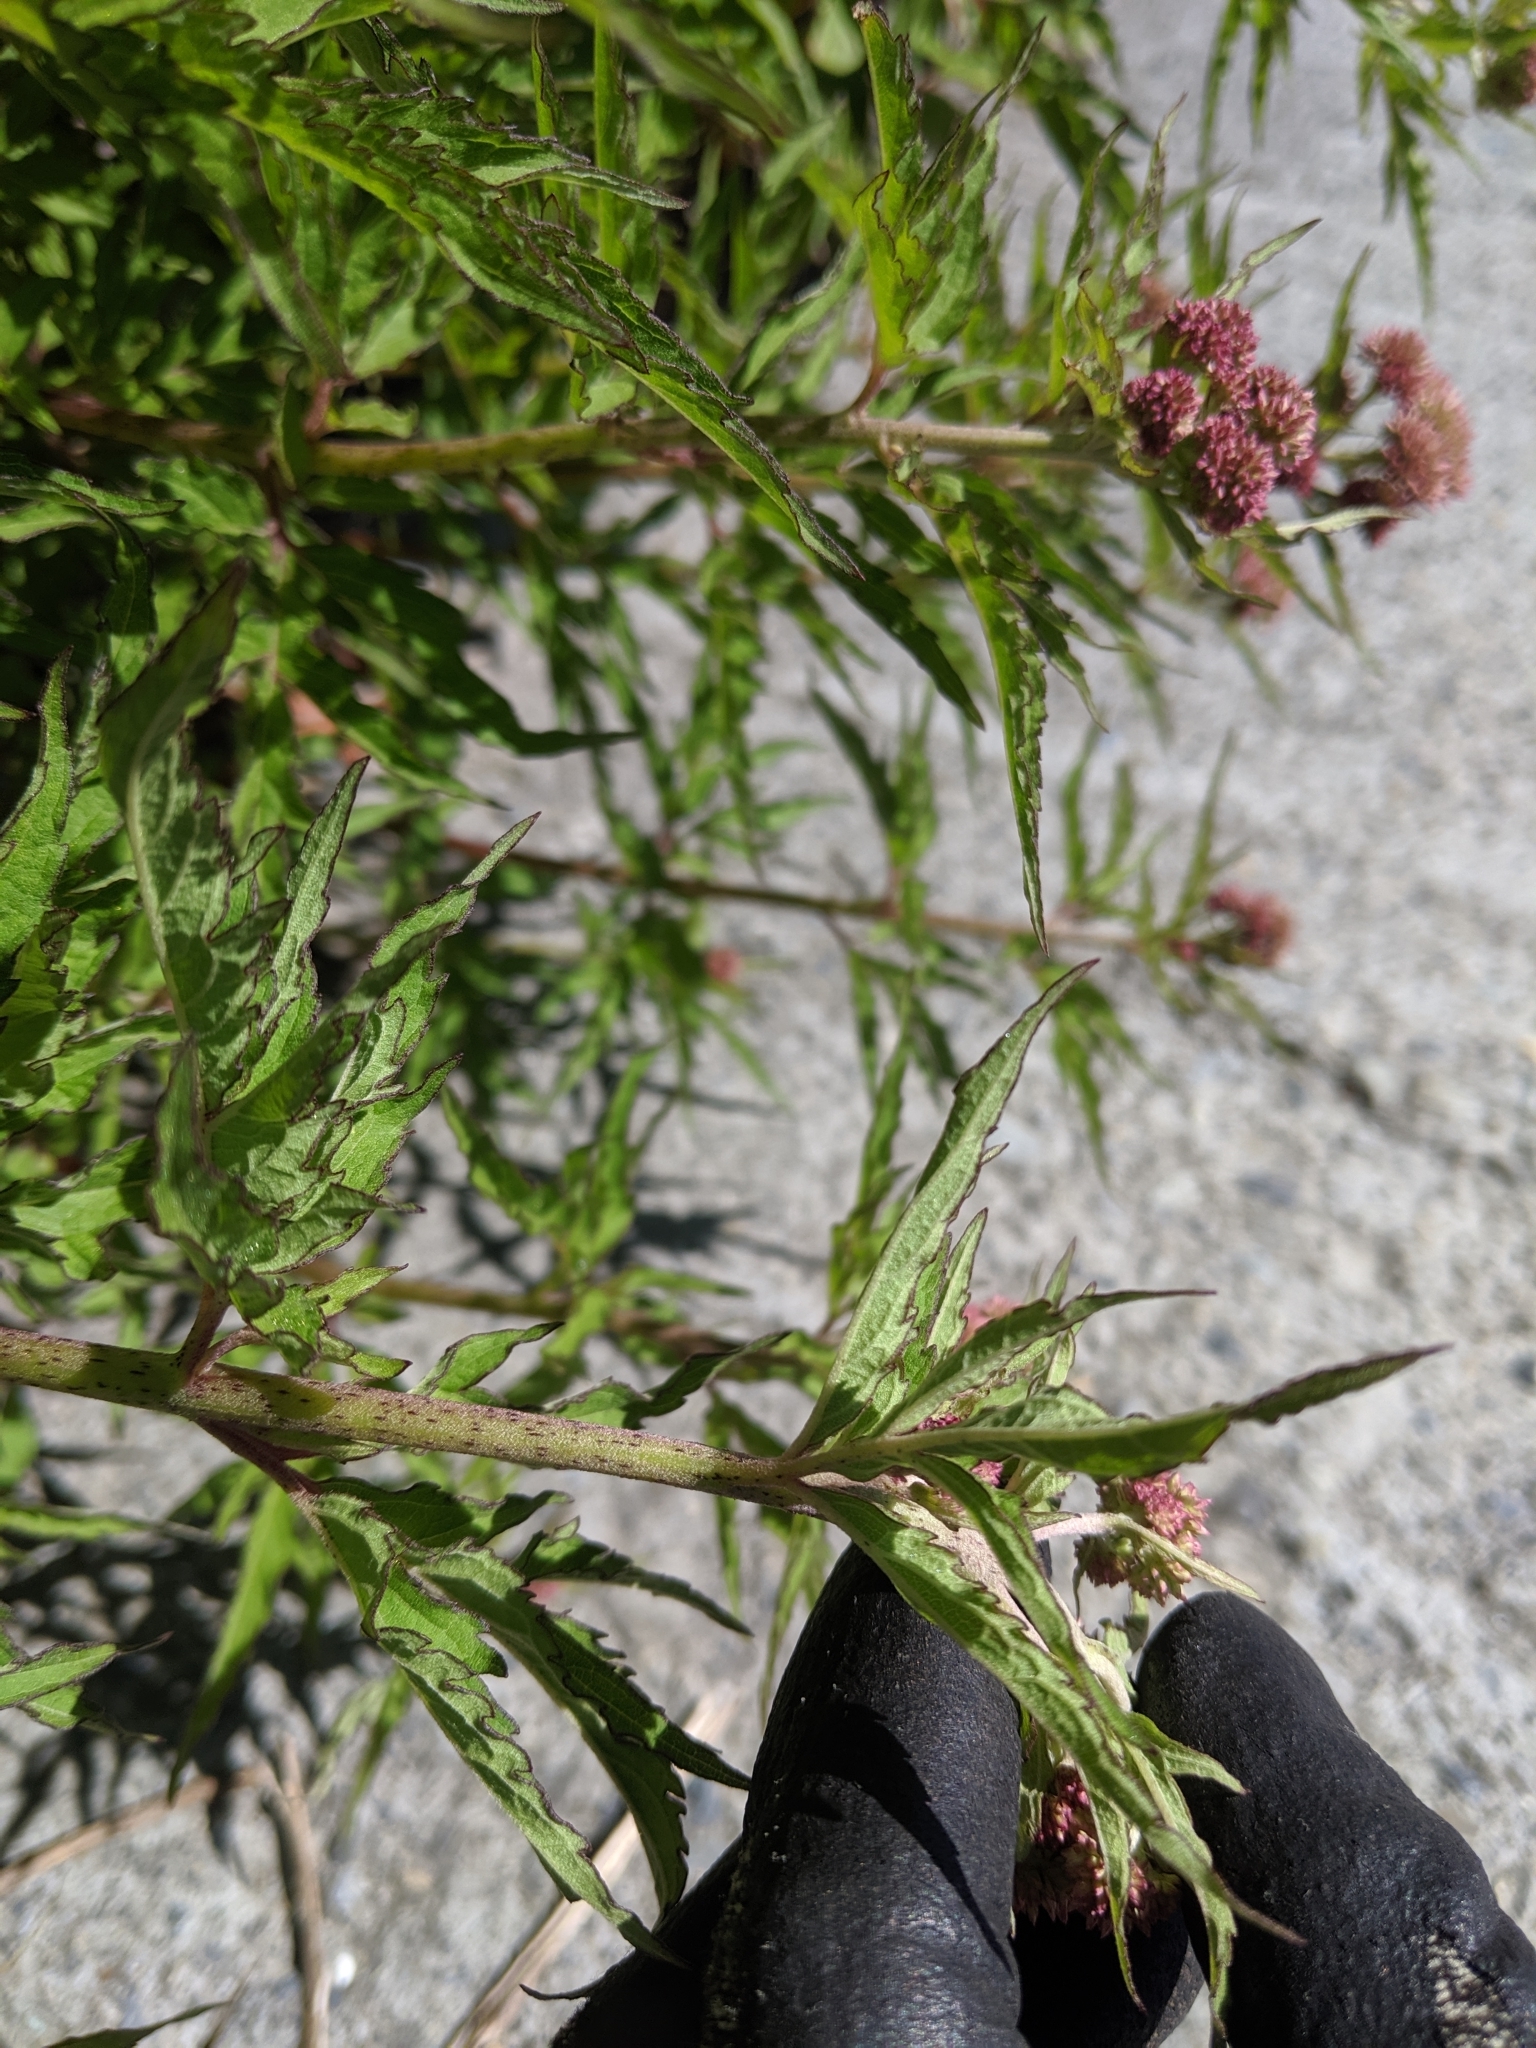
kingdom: Plantae
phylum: Tracheophyta
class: Magnoliopsida
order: Asterales
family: Asteraceae
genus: Eupatorium
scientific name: Eupatorium formosanum
